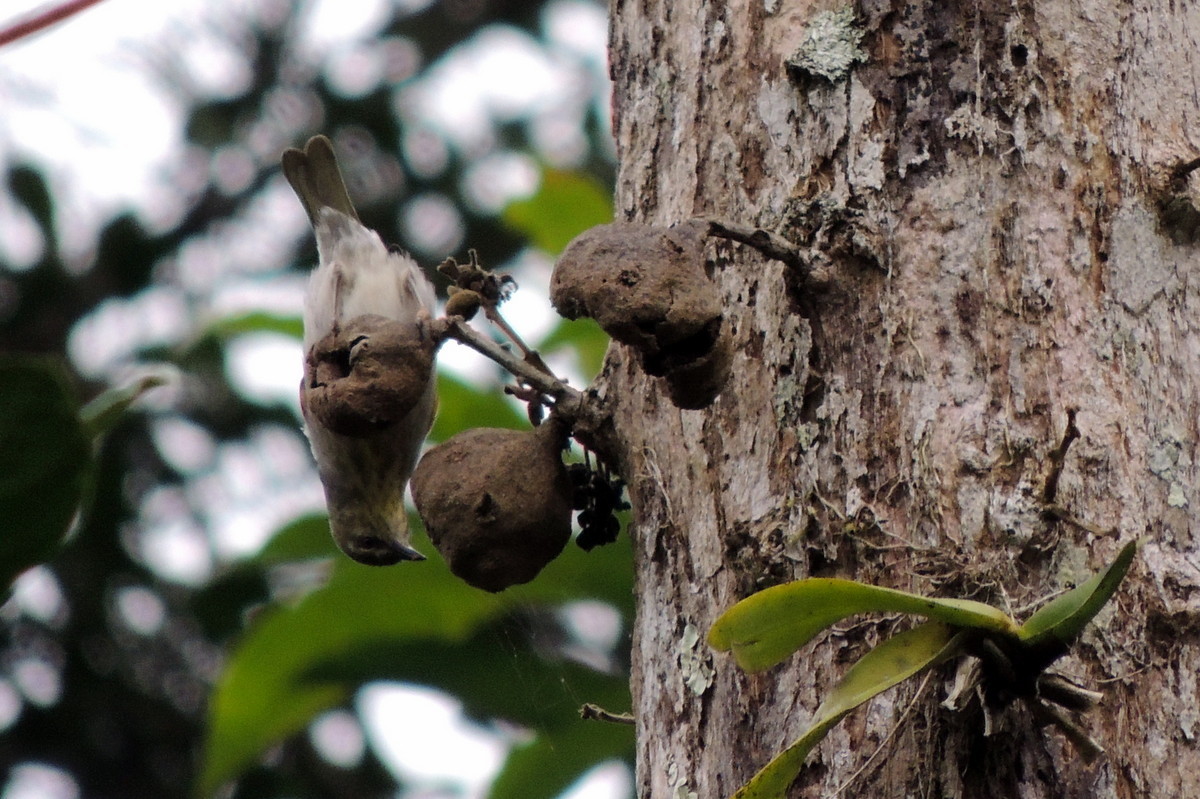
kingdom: Animalia
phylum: Chordata
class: Aves
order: Passeriformes
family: Cisticolidae
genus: Neomixis
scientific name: Neomixis striatigula
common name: Stripe-throated jery
